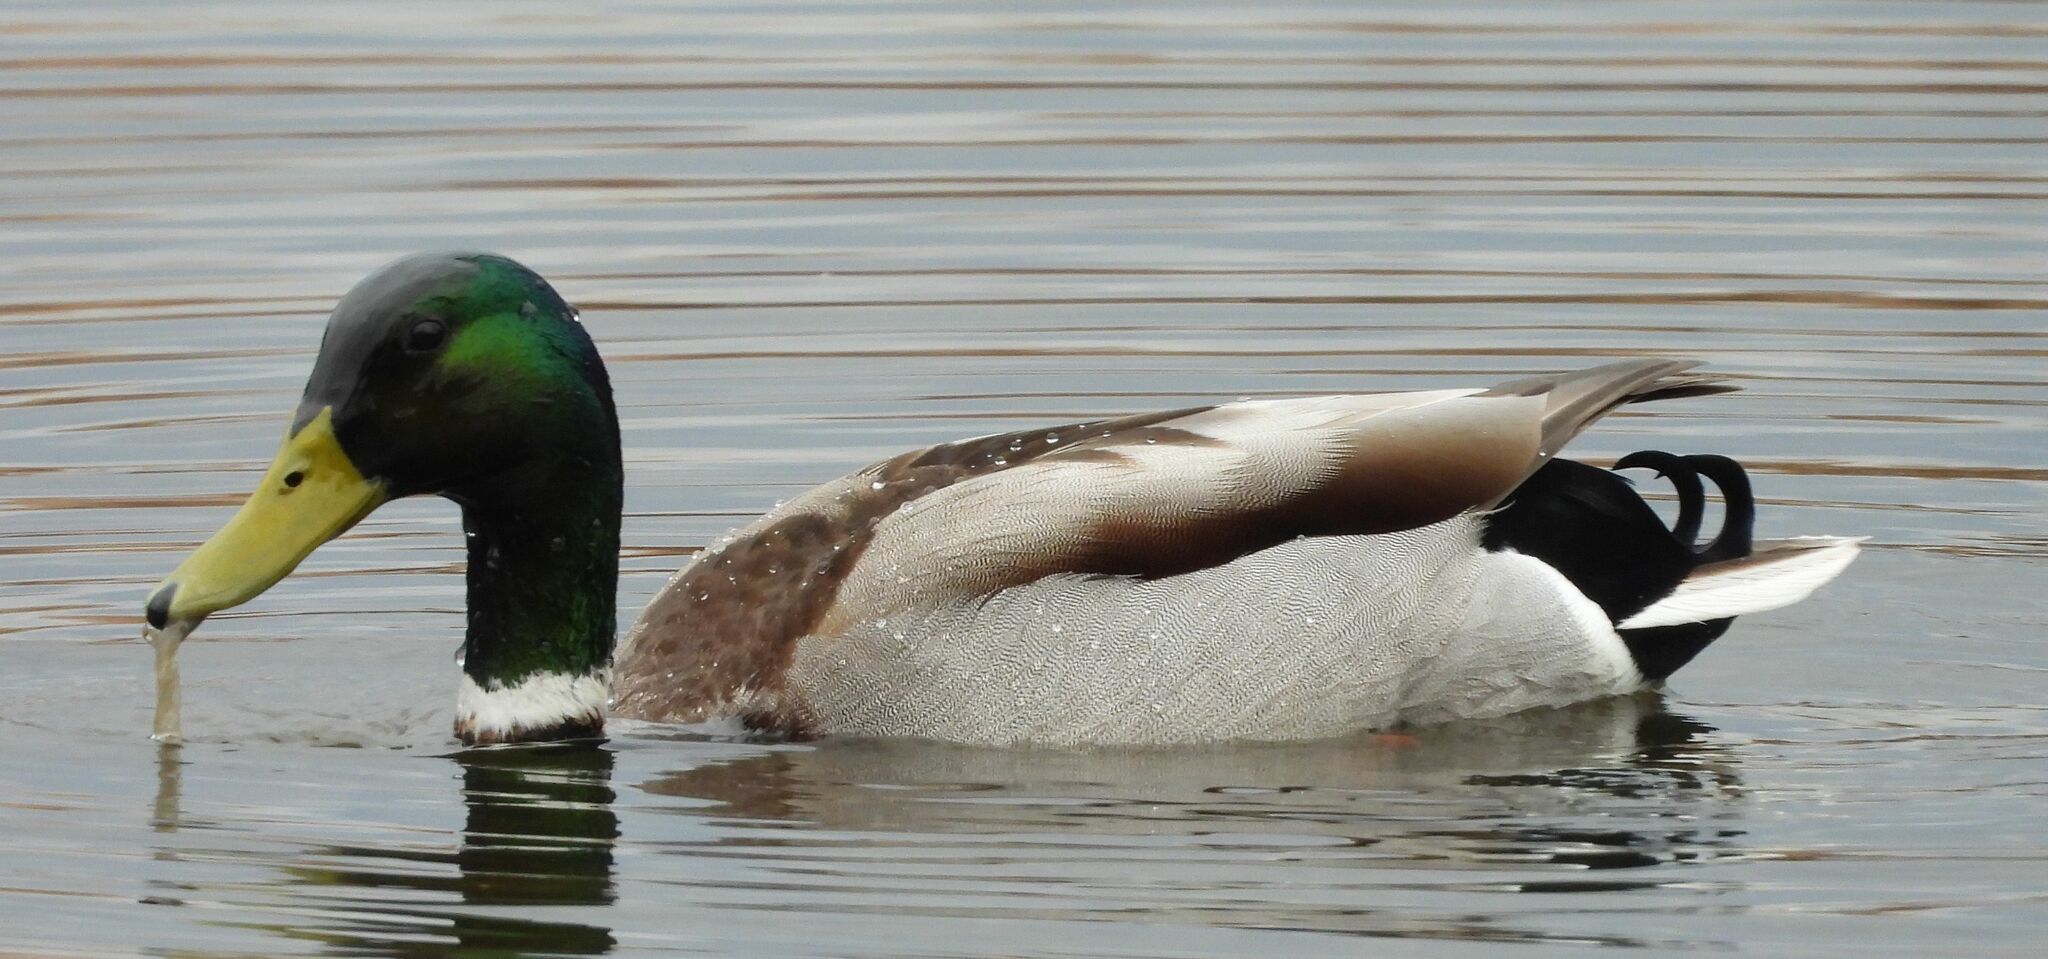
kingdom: Animalia
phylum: Chordata
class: Aves
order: Anseriformes
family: Anatidae
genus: Anas
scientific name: Anas platyrhynchos
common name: Mallard
